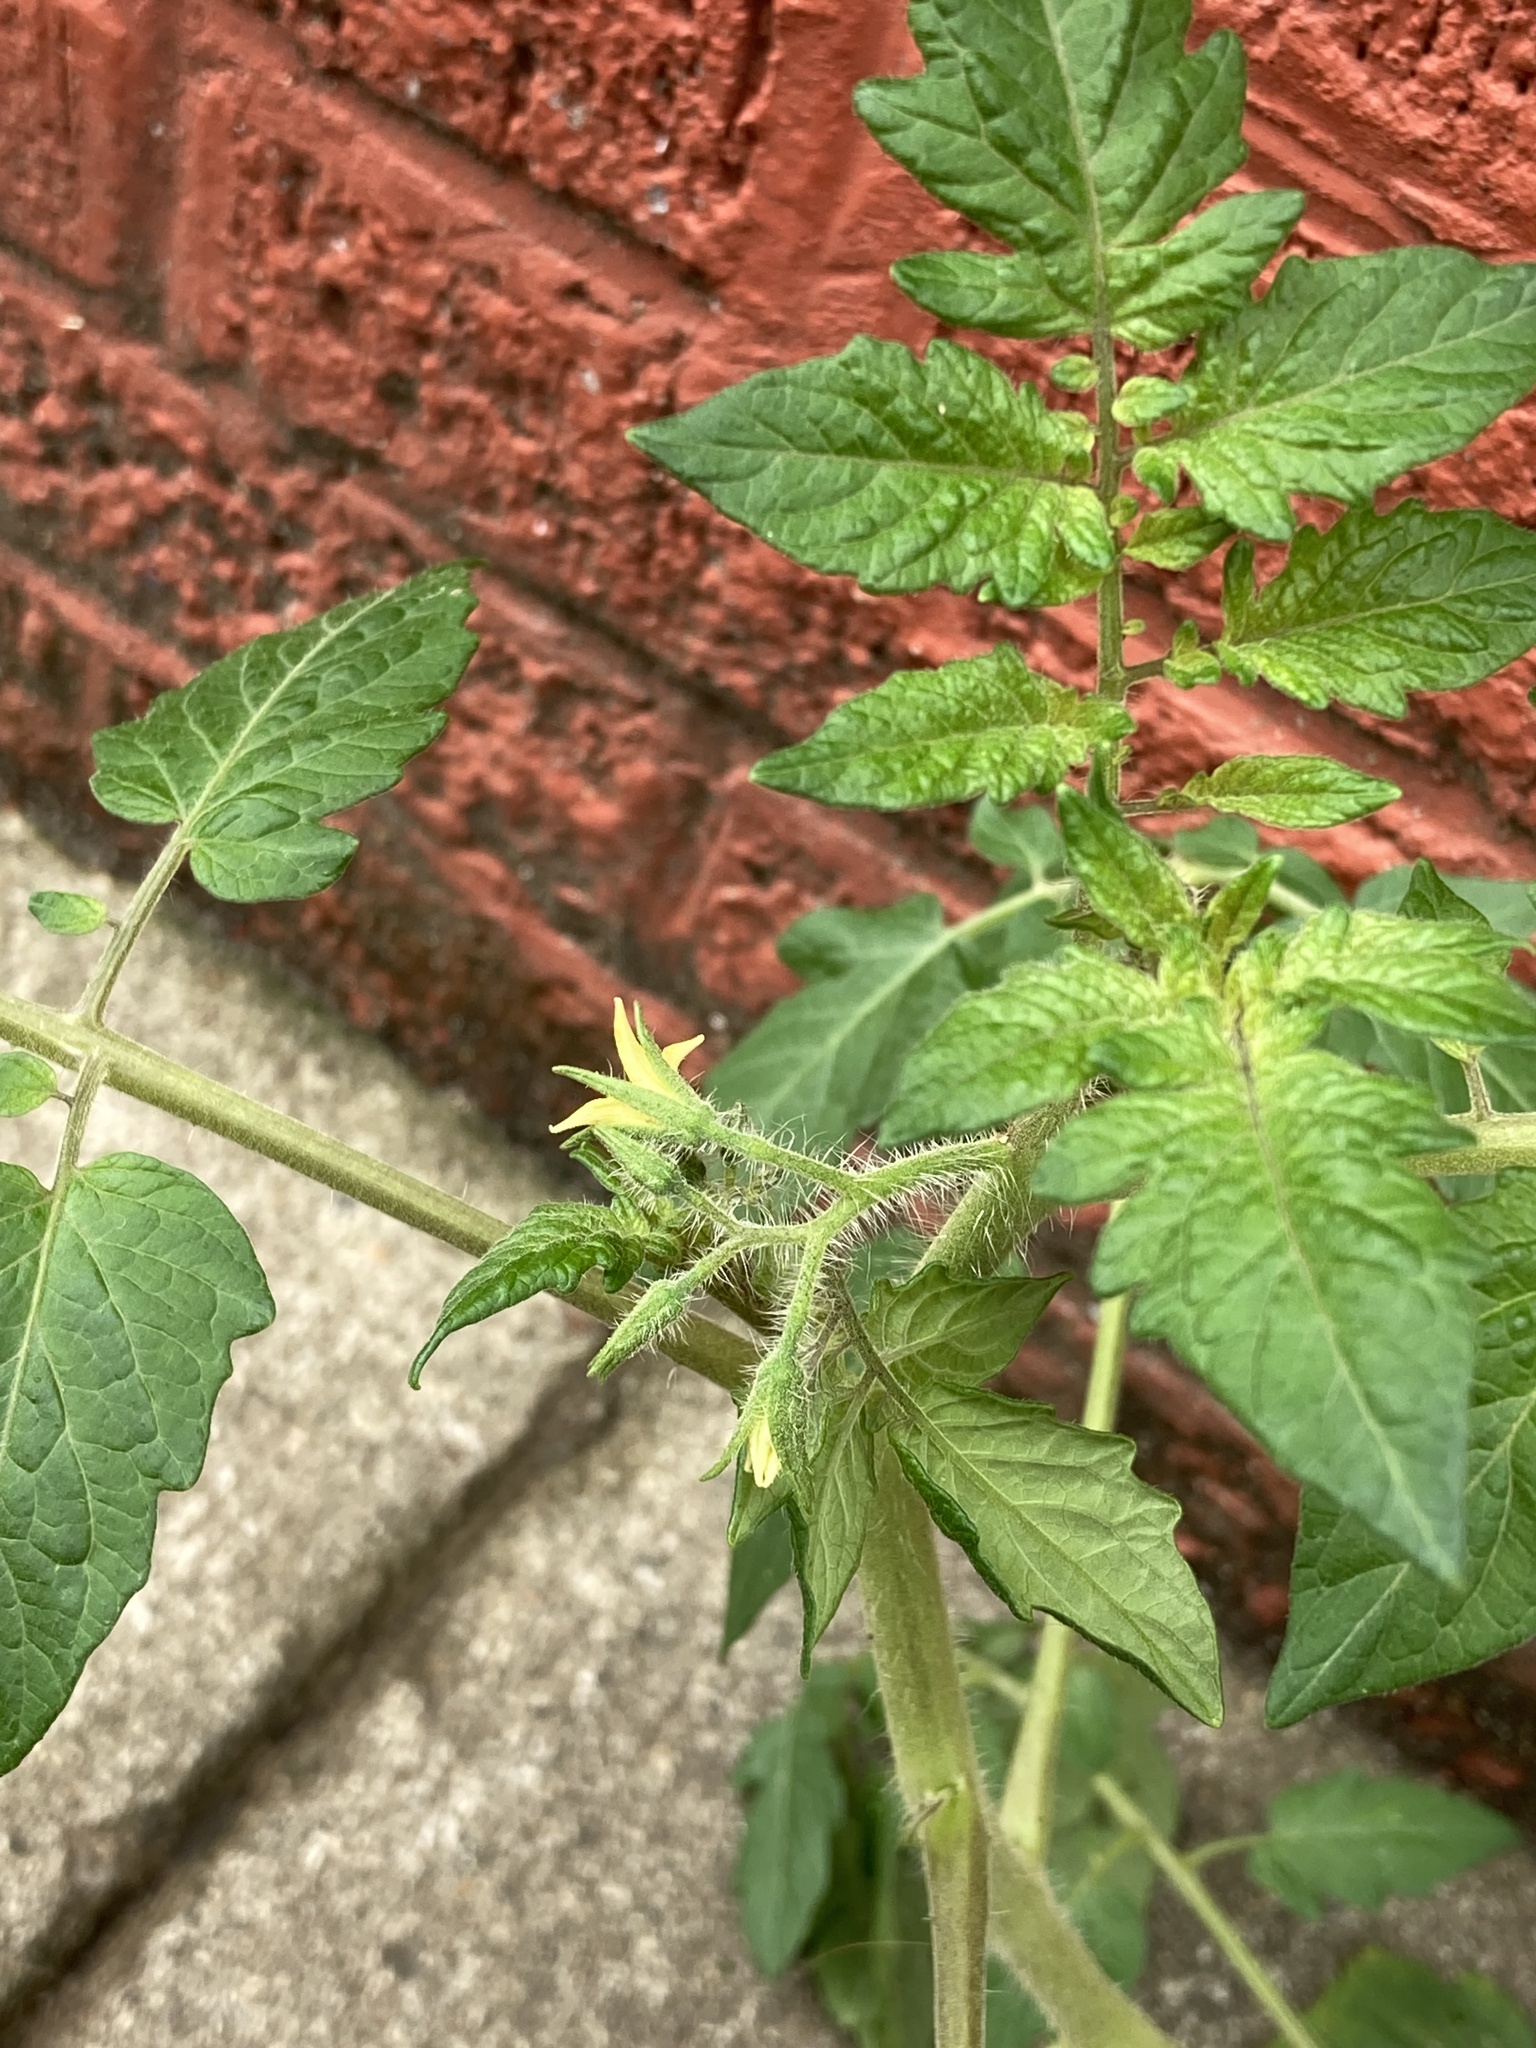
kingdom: Plantae
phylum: Tracheophyta
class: Magnoliopsida
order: Solanales
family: Solanaceae
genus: Solanum
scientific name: Solanum lycopersicum
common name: Garden tomato
